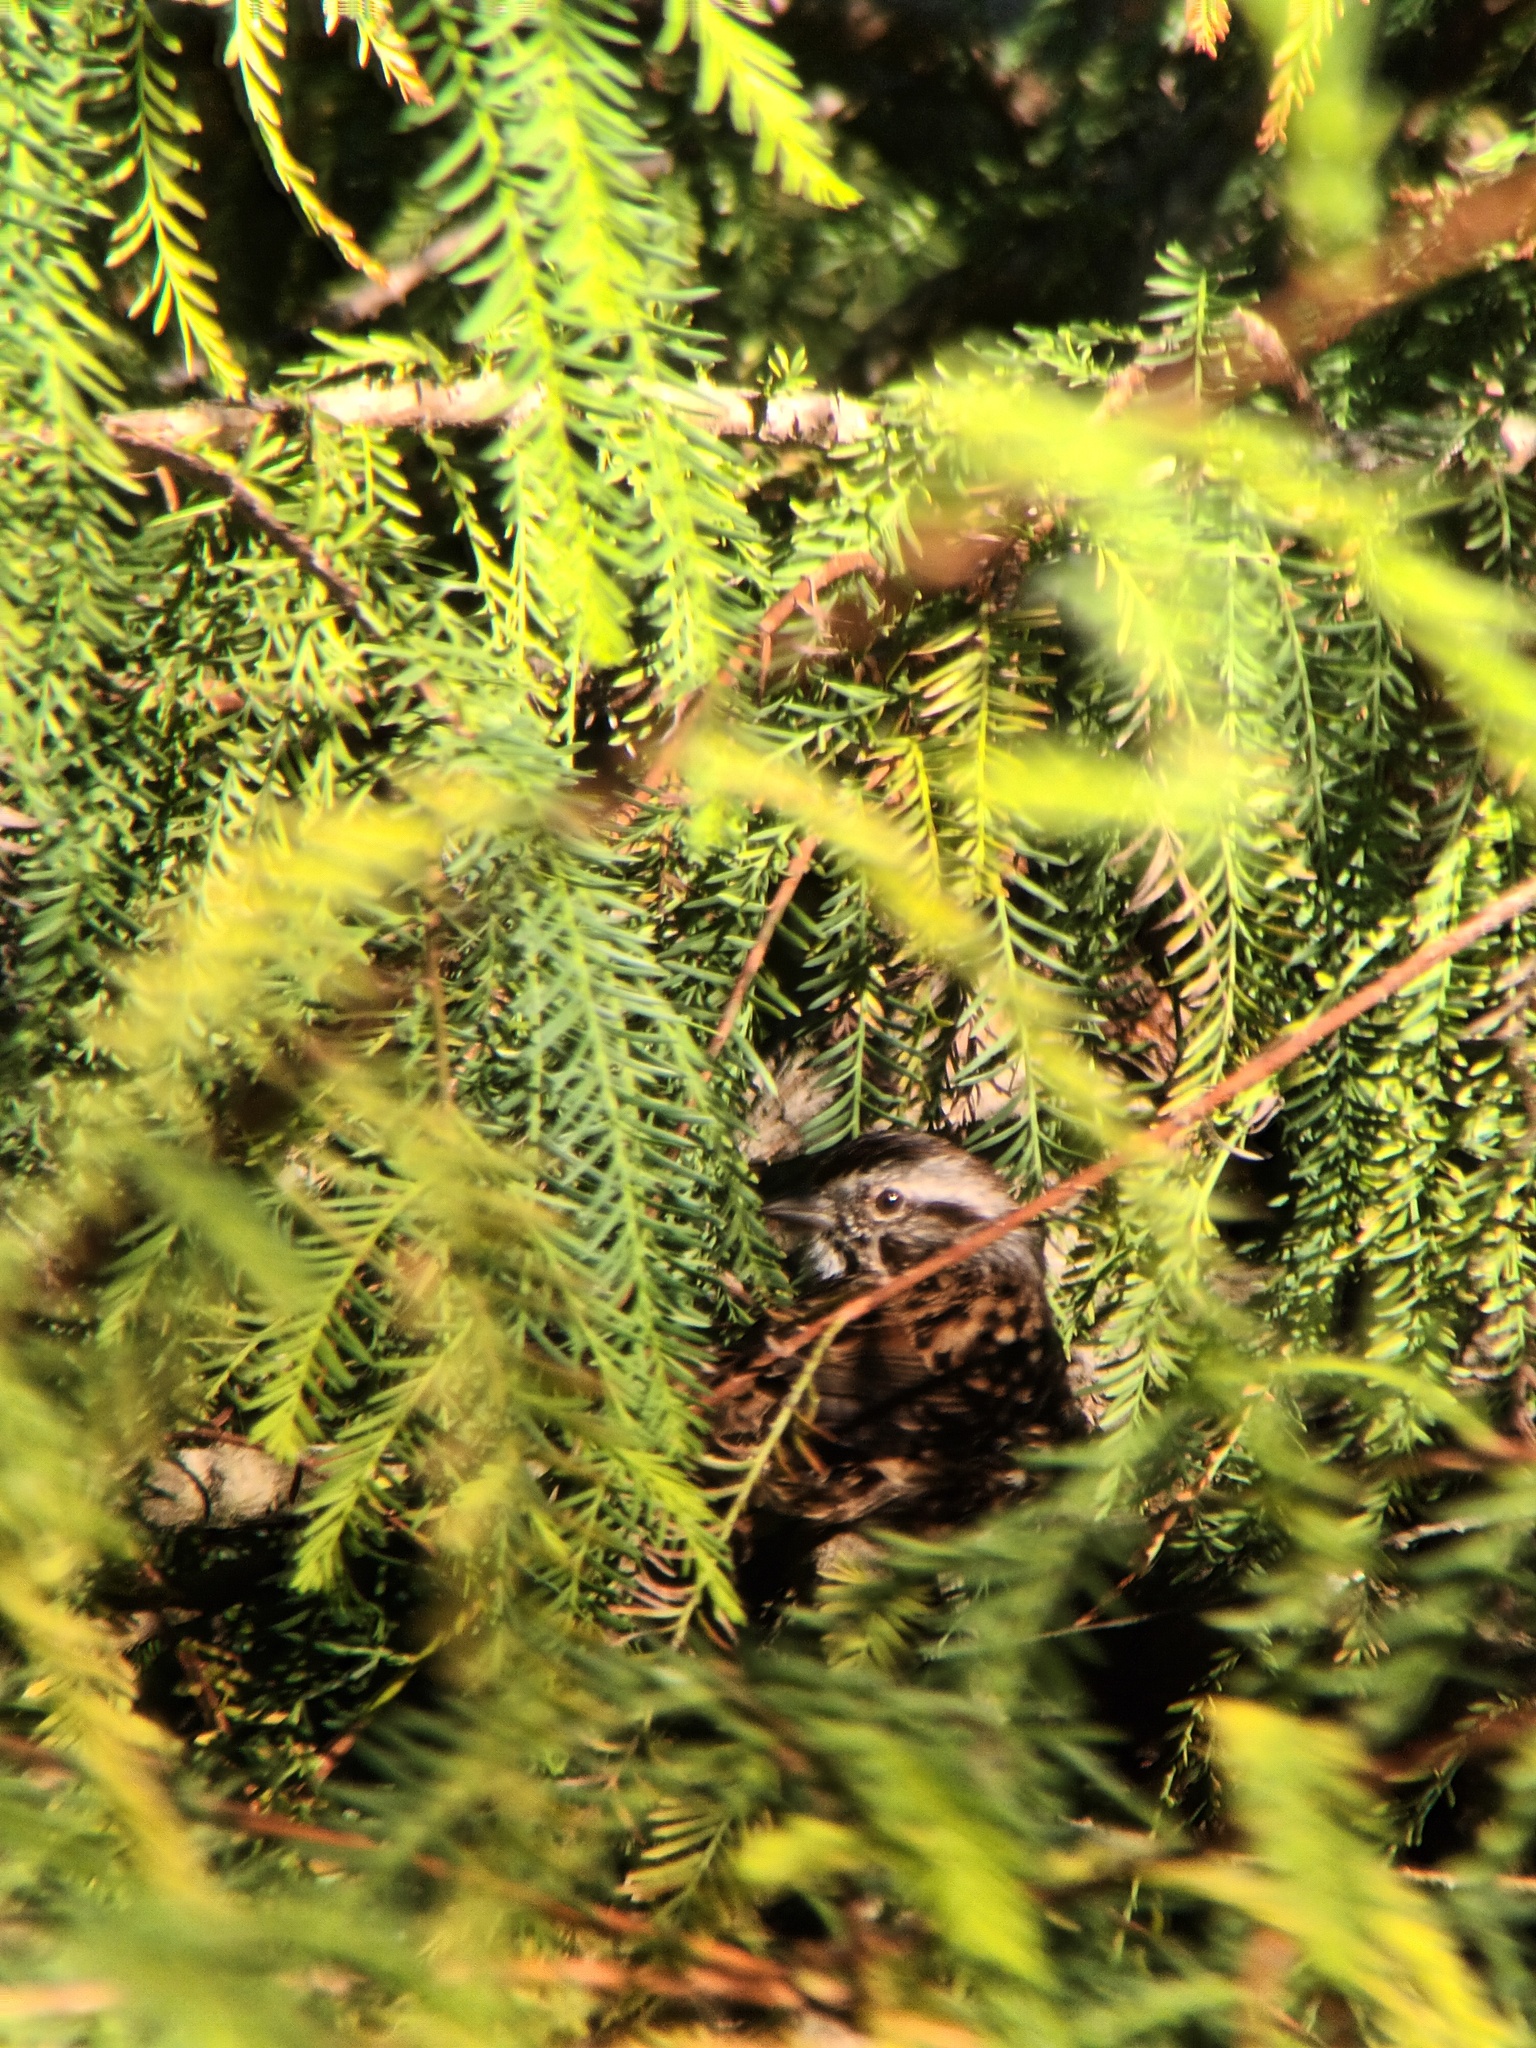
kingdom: Animalia
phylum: Chordata
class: Aves
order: Passeriformes
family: Passerellidae
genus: Melospiza
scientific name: Melospiza melodia
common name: Song sparrow
